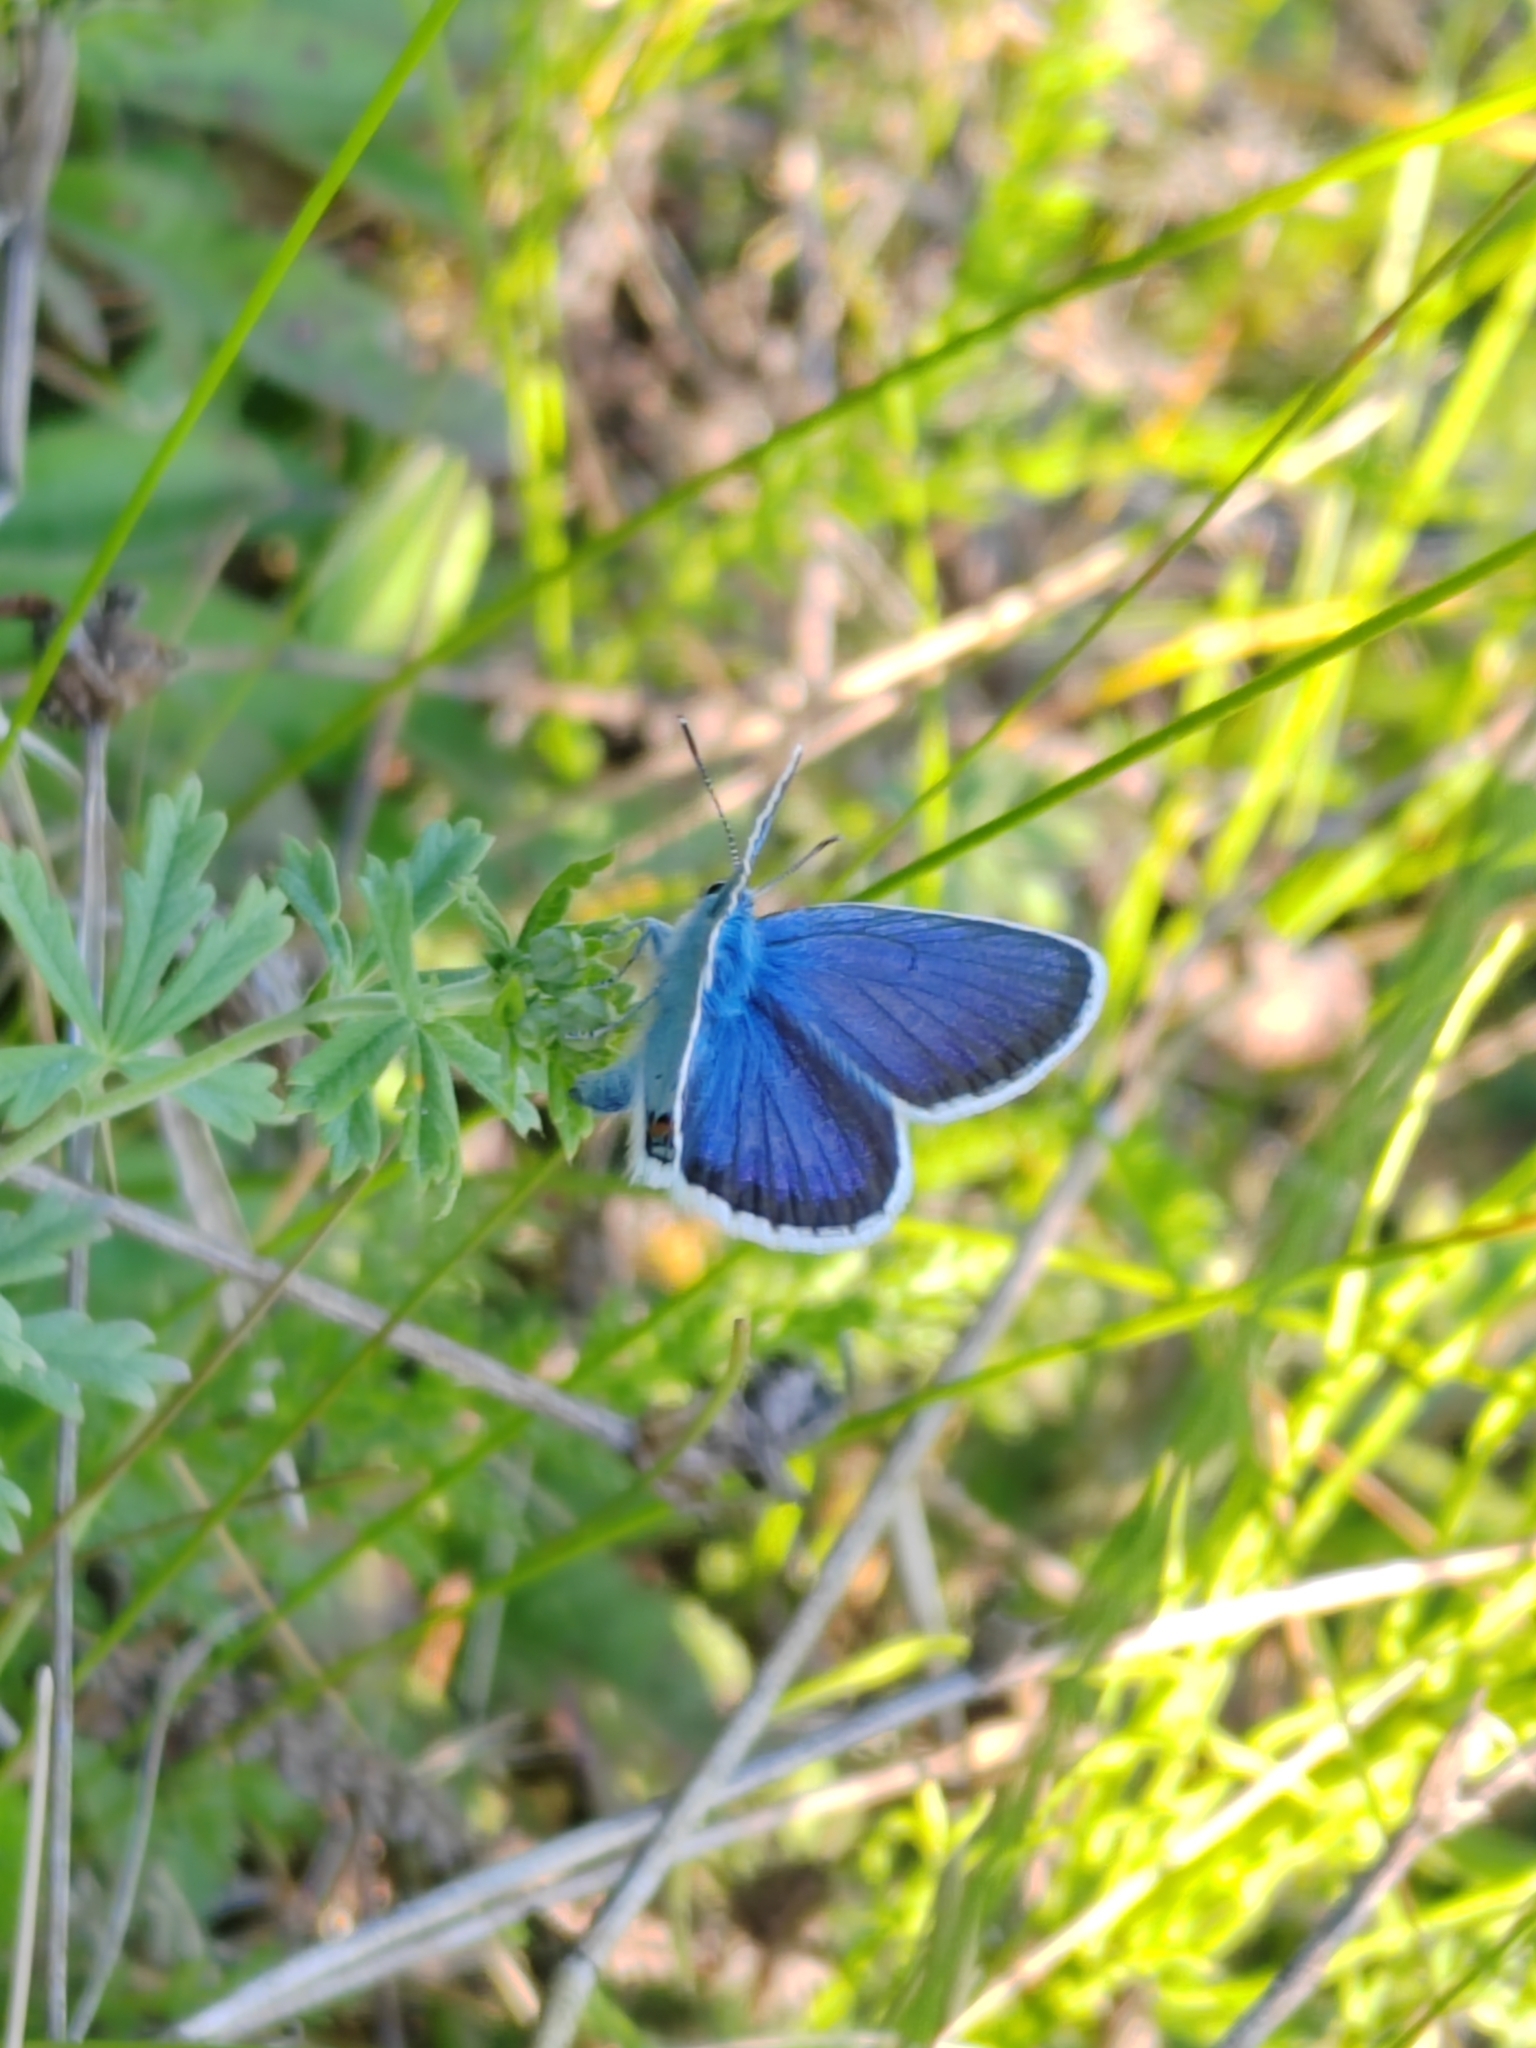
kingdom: Animalia
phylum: Arthropoda
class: Insecta
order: Lepidoptera
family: Lycaenidae
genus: Plebejus
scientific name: Plebejus argus
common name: Silver-studded blue
